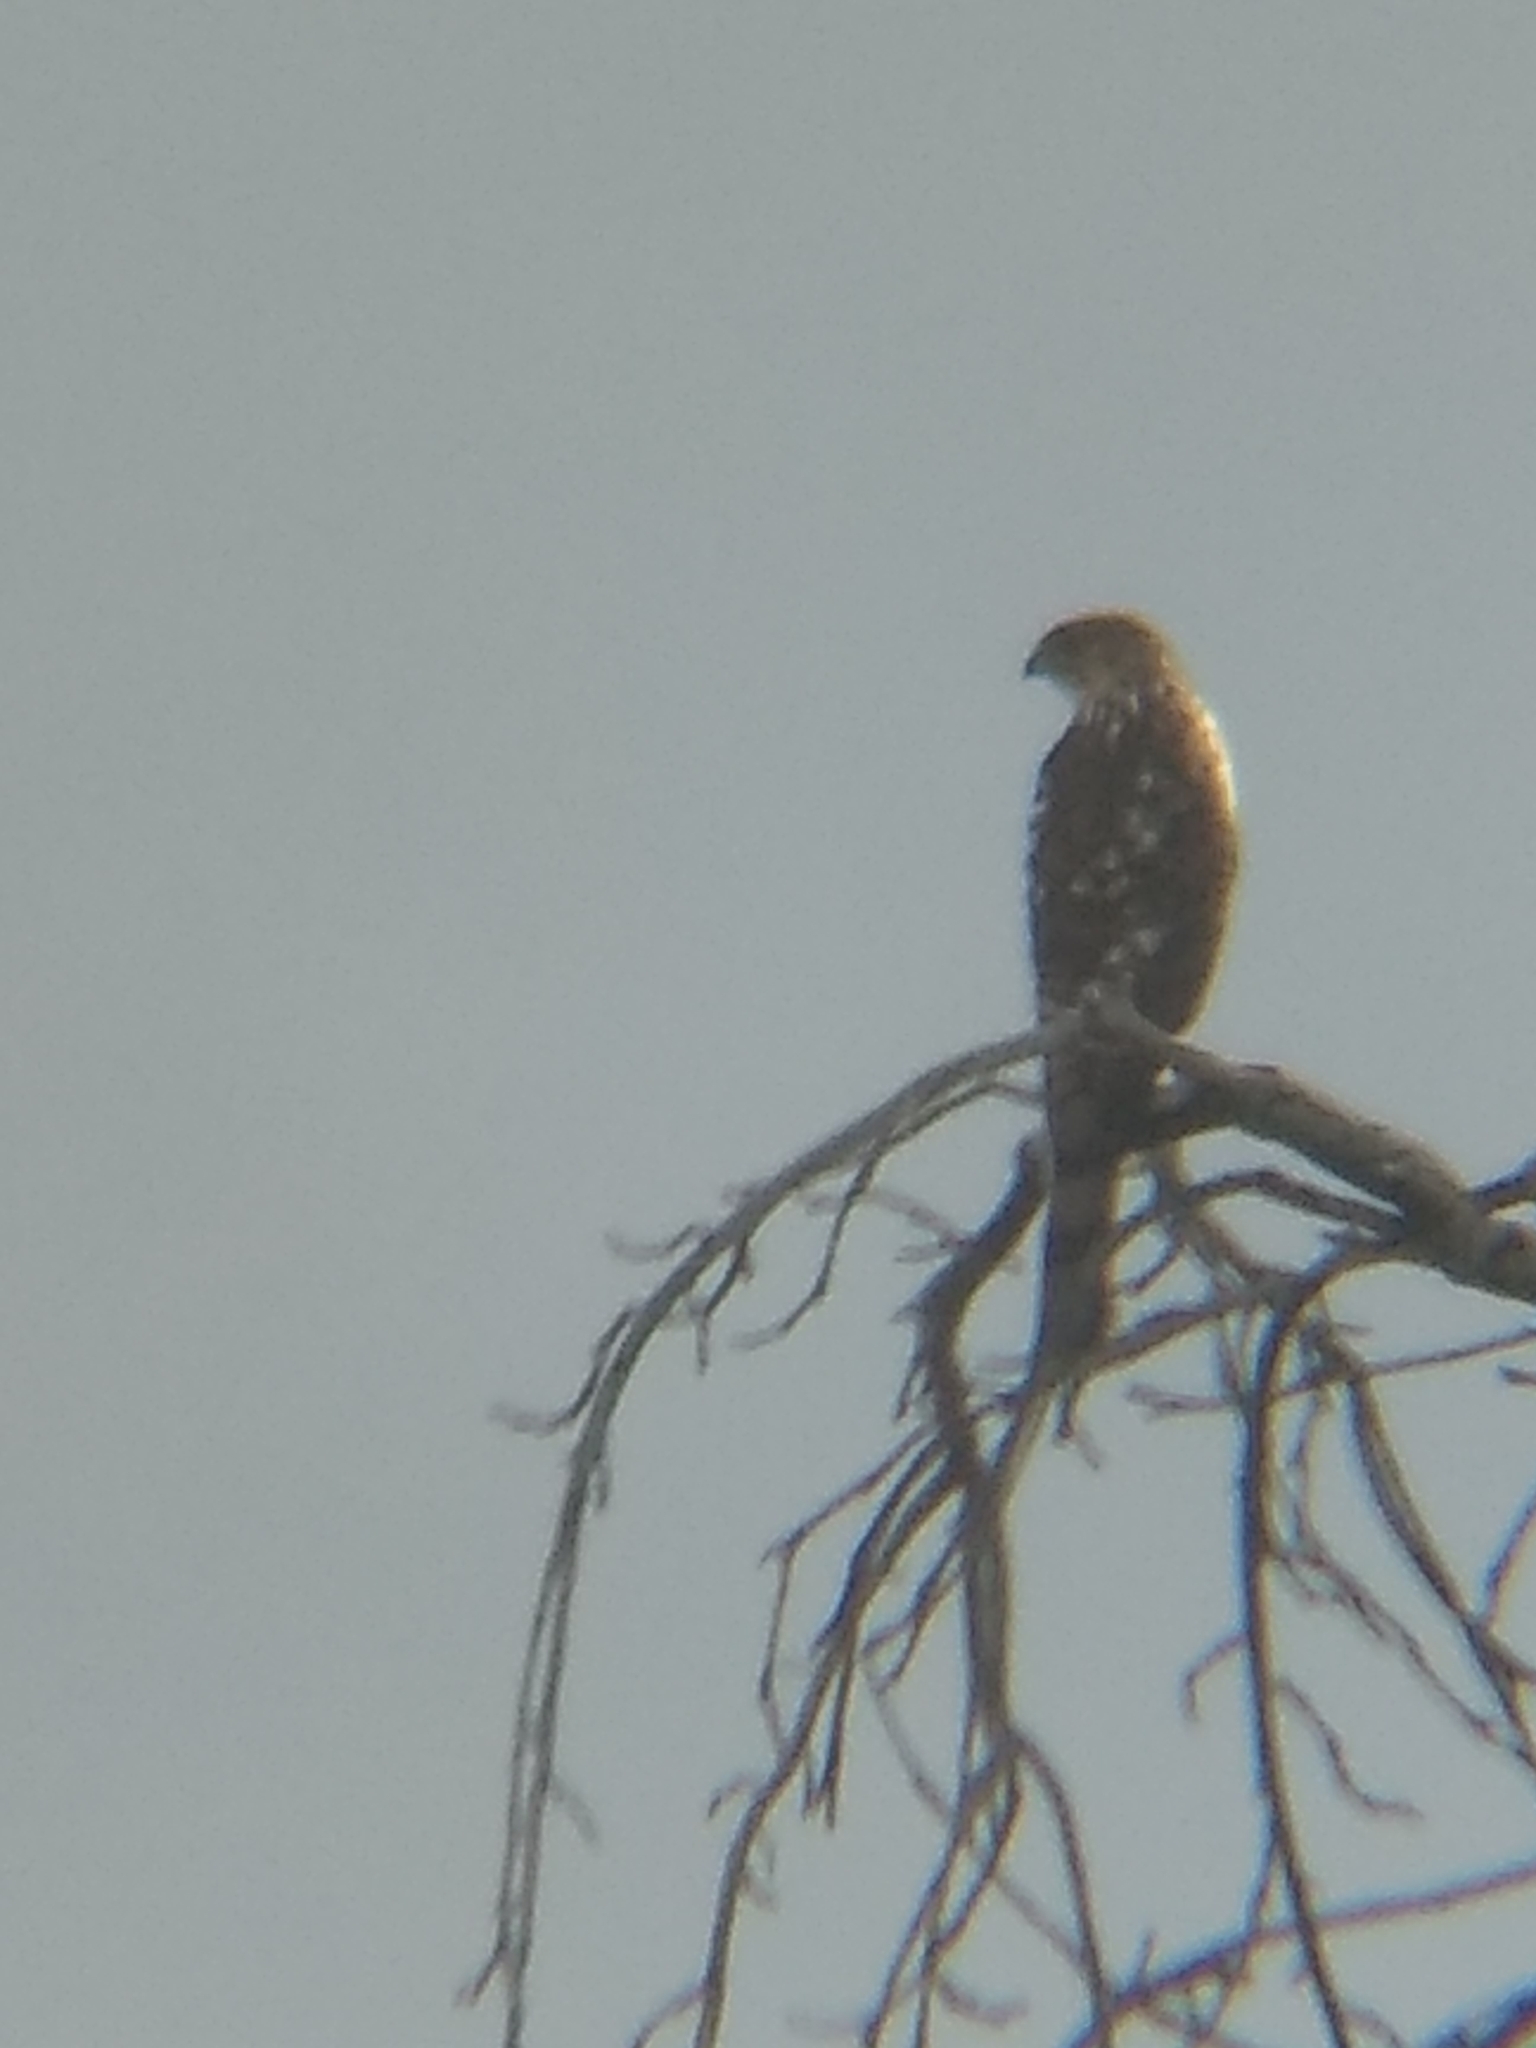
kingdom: Animalia
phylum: Chordata
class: Aves
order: Accipitriformes
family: Accipitridae
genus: Accipiter
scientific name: Accipiter
